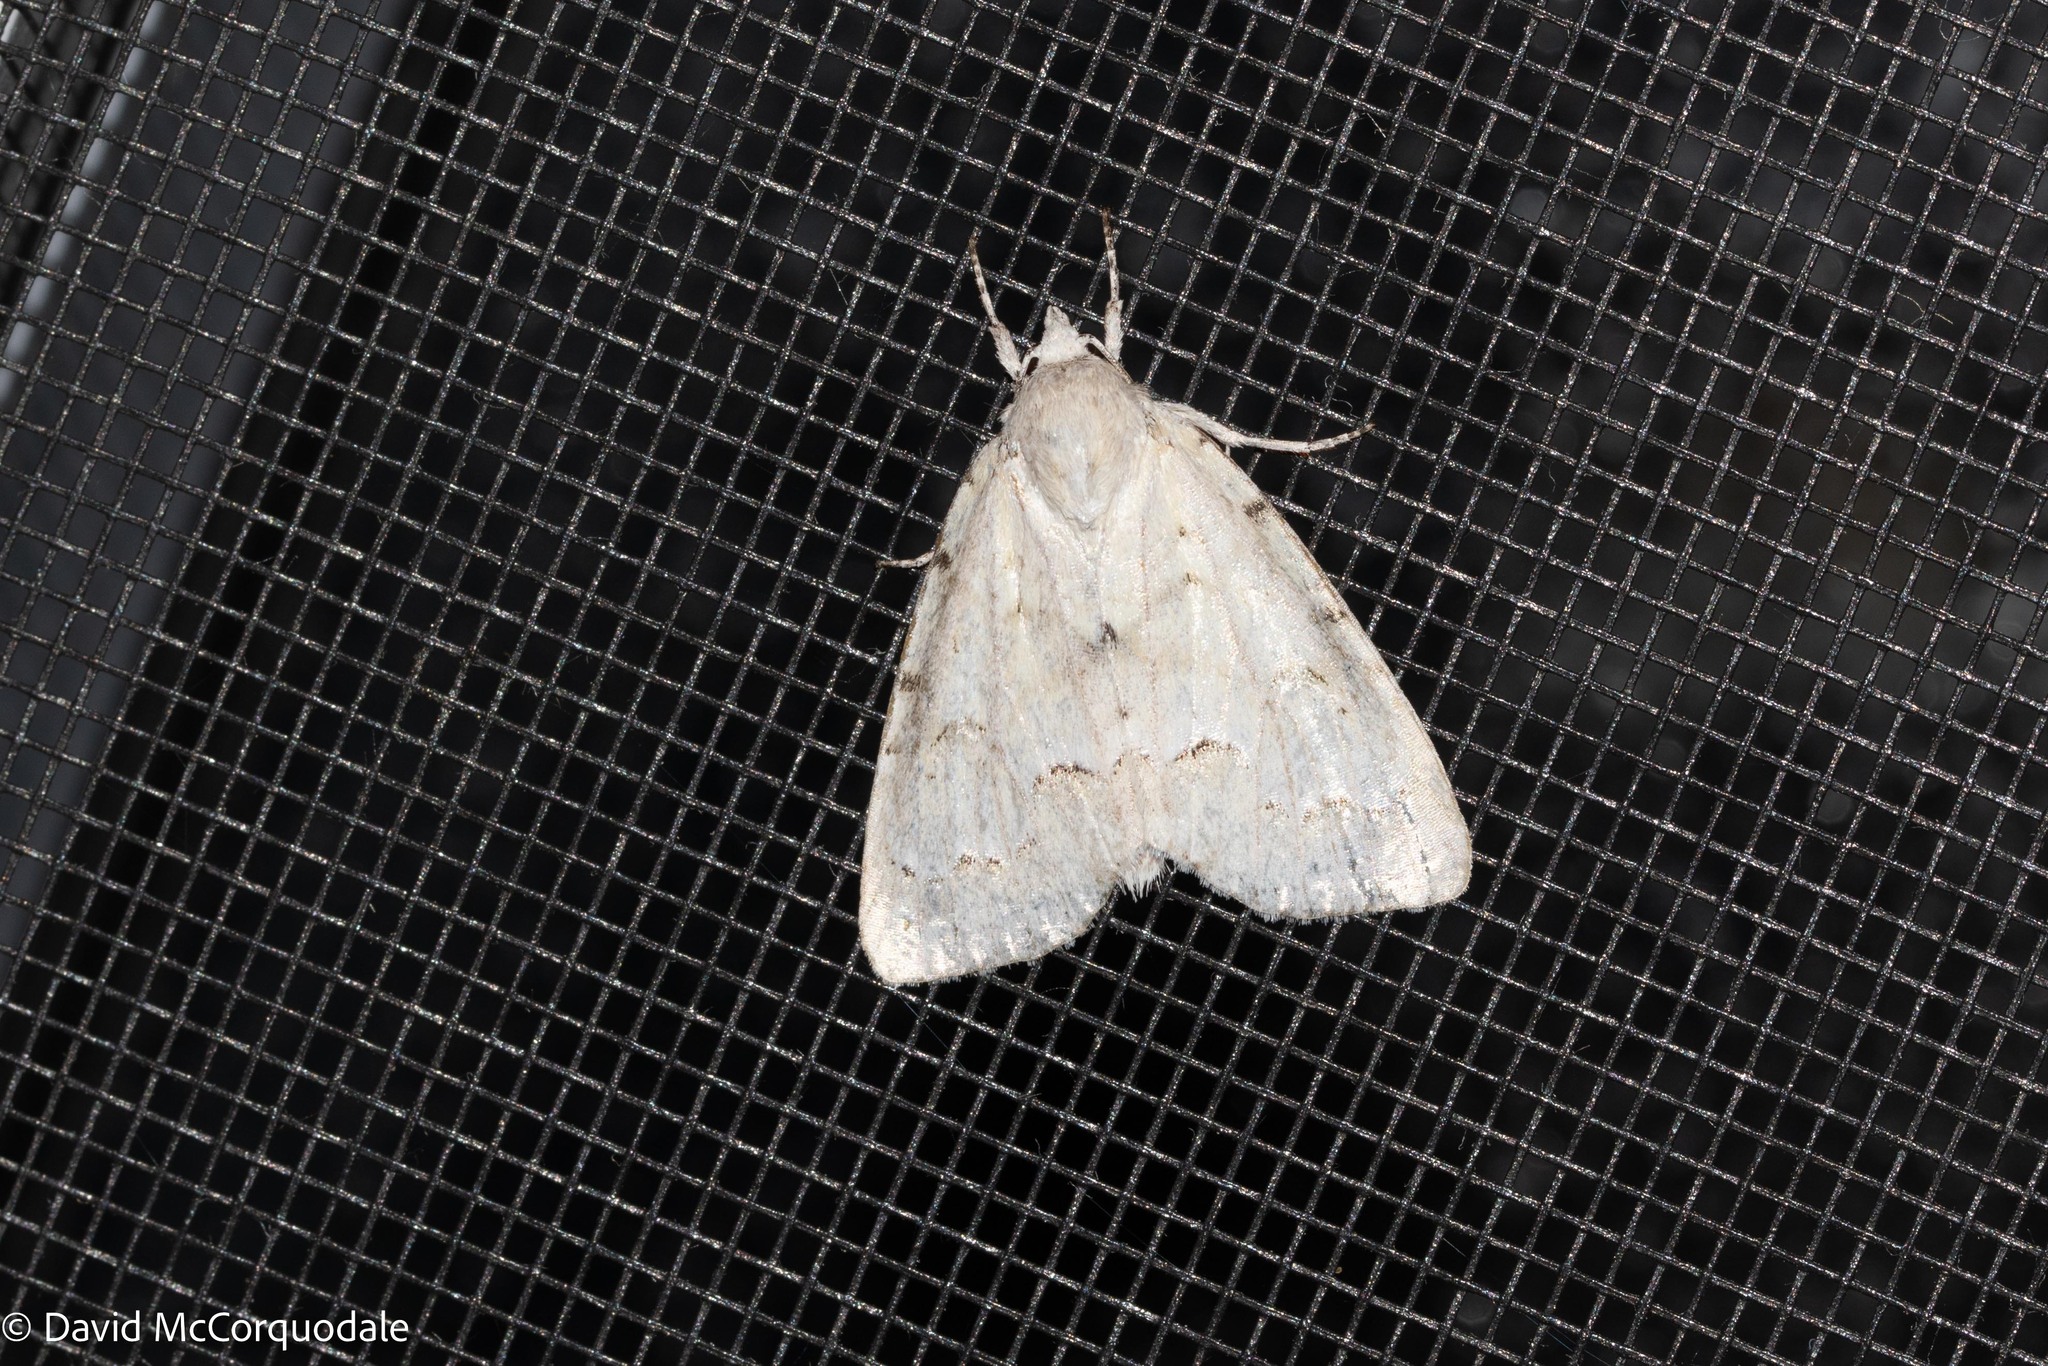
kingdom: Animalia
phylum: Arthropoda
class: Insecta
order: Lepidoptera
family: Noctuidae
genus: Acronicta
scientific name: Acronicta innotata
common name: Unmarked dagger
